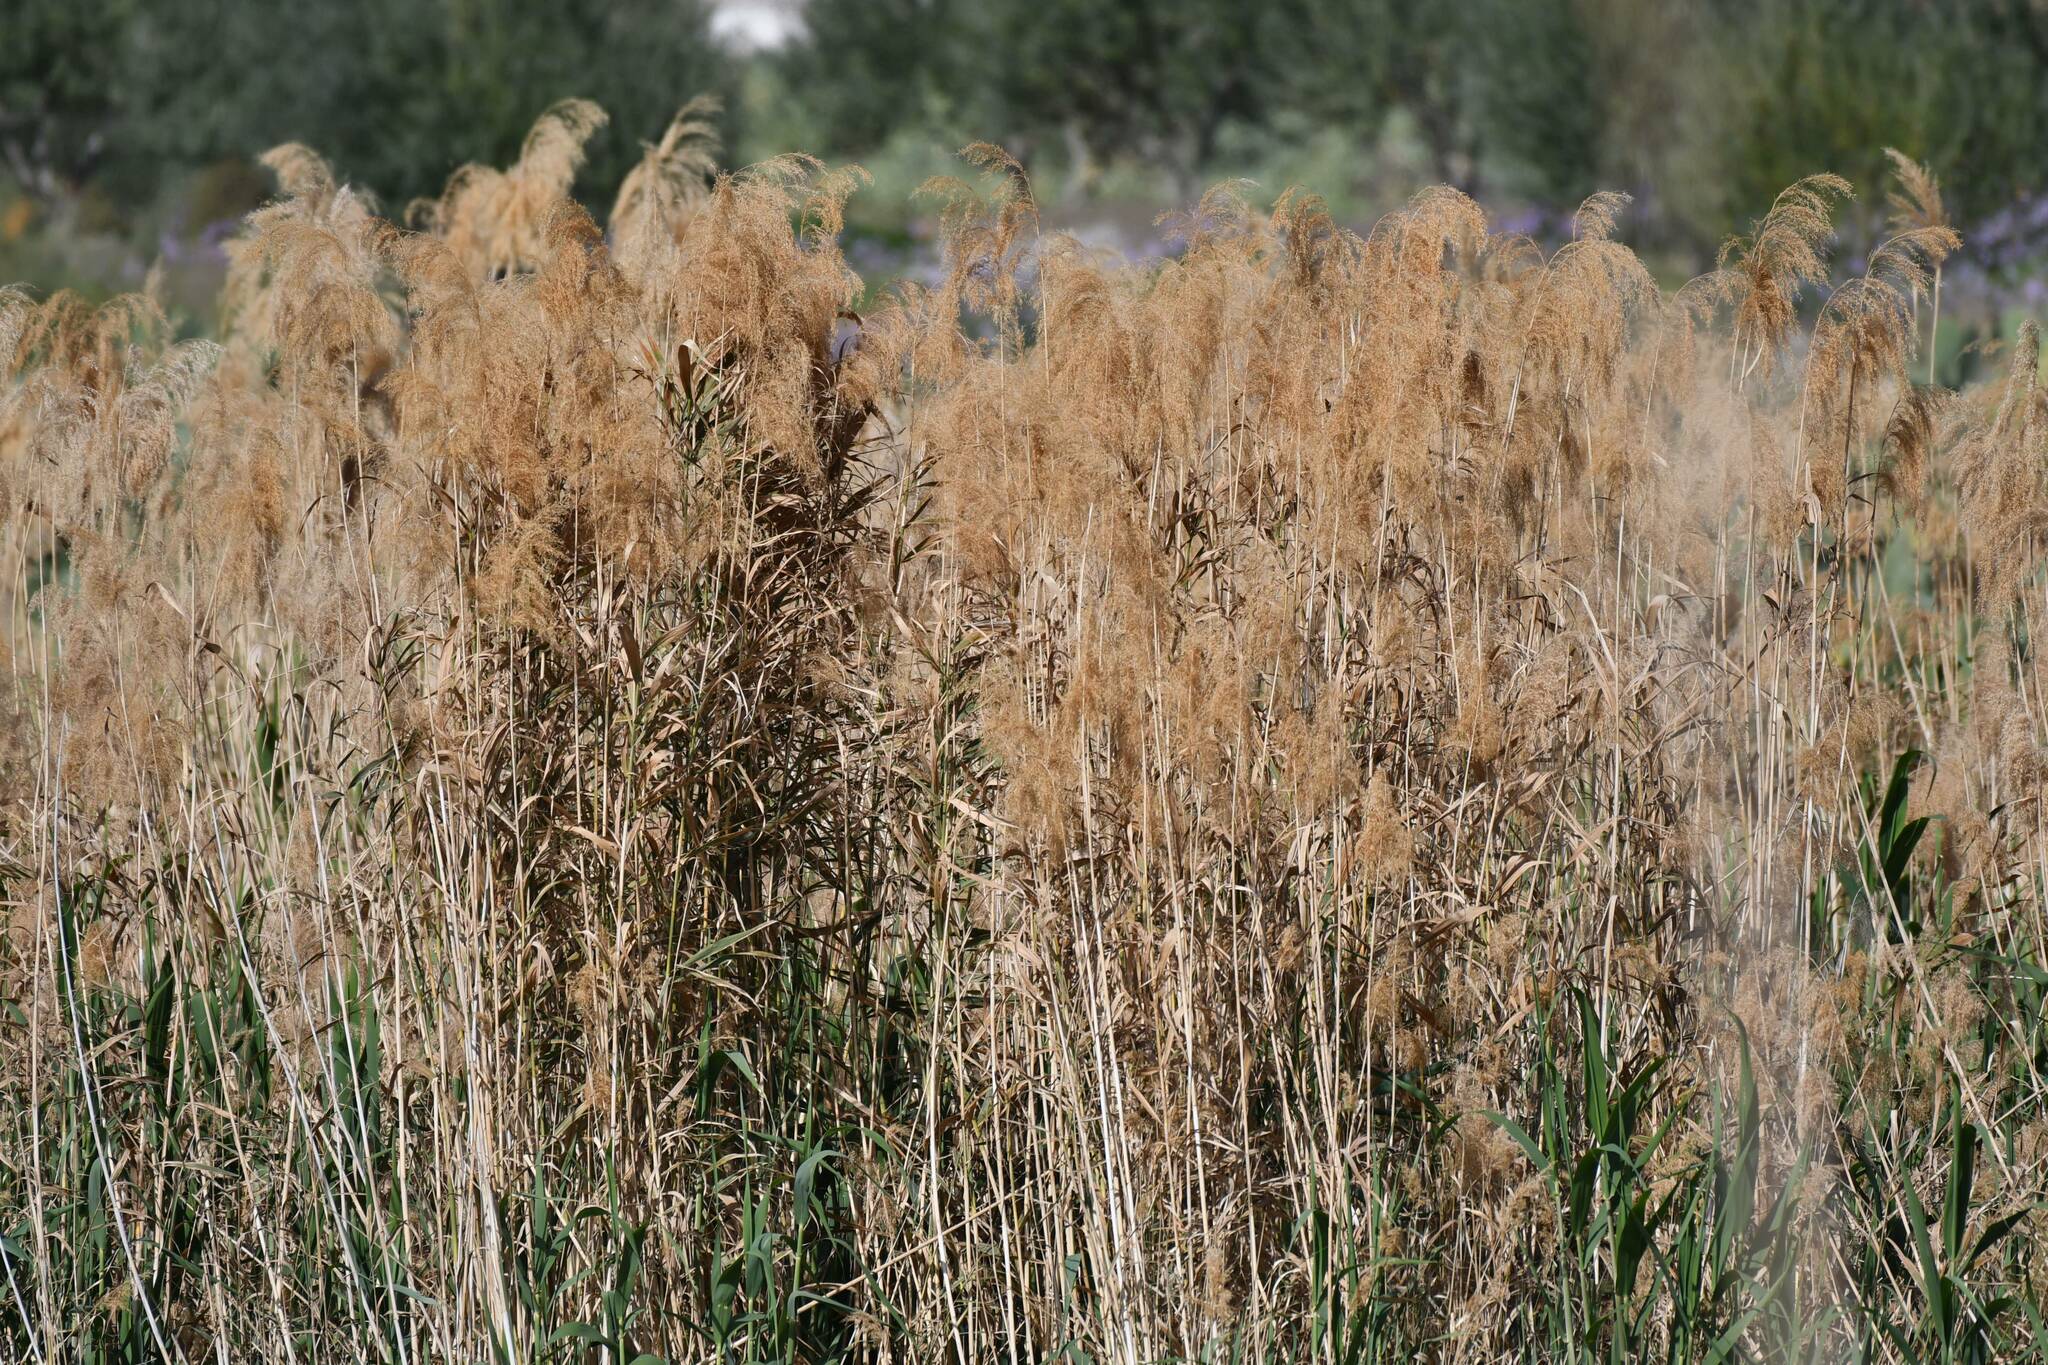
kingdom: Plantae
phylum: Tracheophyta
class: Liliopsida
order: Poales
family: Poaceae
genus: Phragmites
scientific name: Phragmites australis
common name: Common reed
